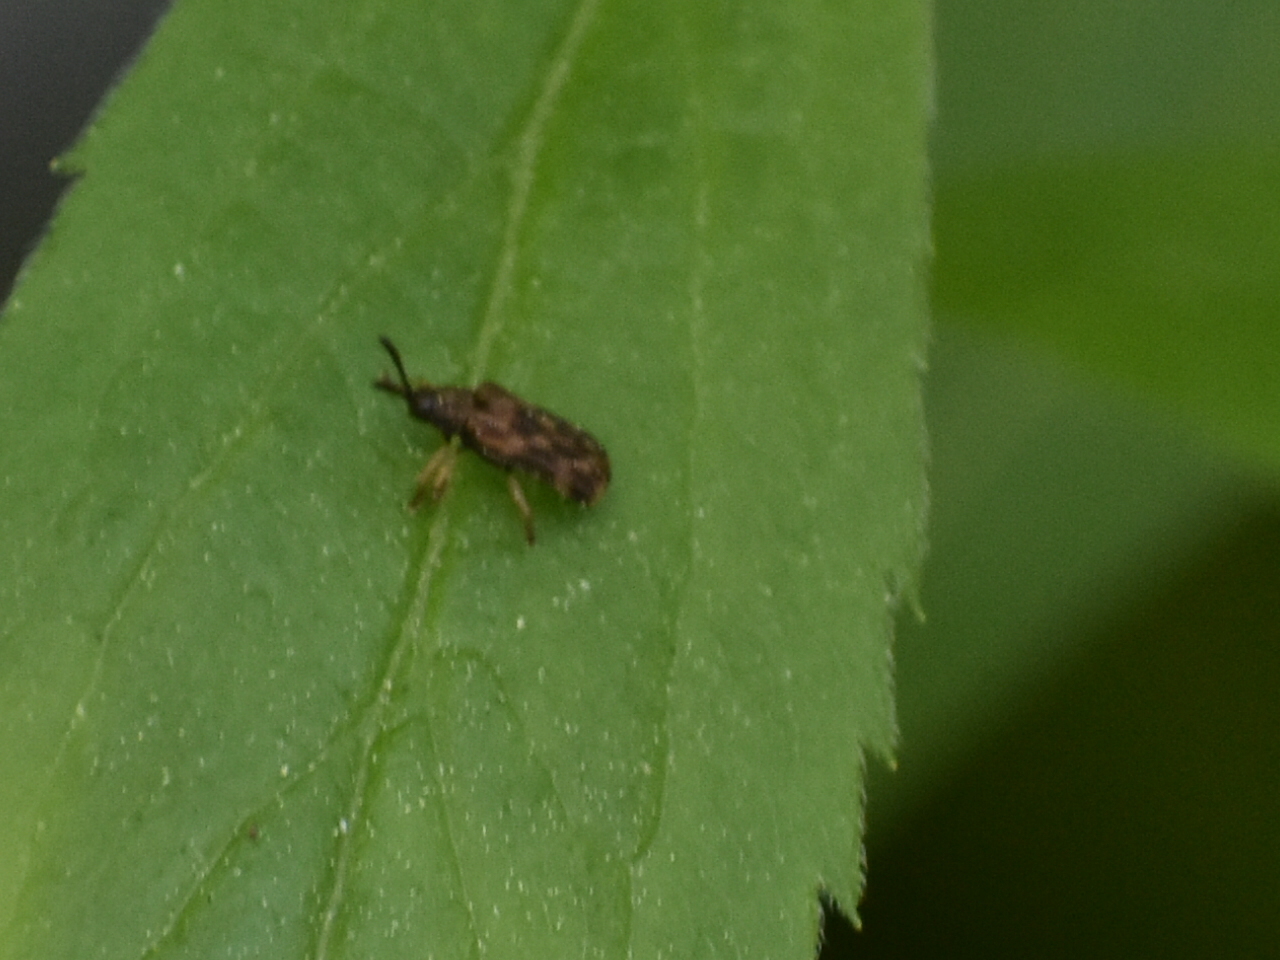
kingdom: Animalia
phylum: Arthropoda
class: Insecta
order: Coleoptera
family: Chrysomelidae
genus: Sumitrosis
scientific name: Sumitrosis inaequalis
